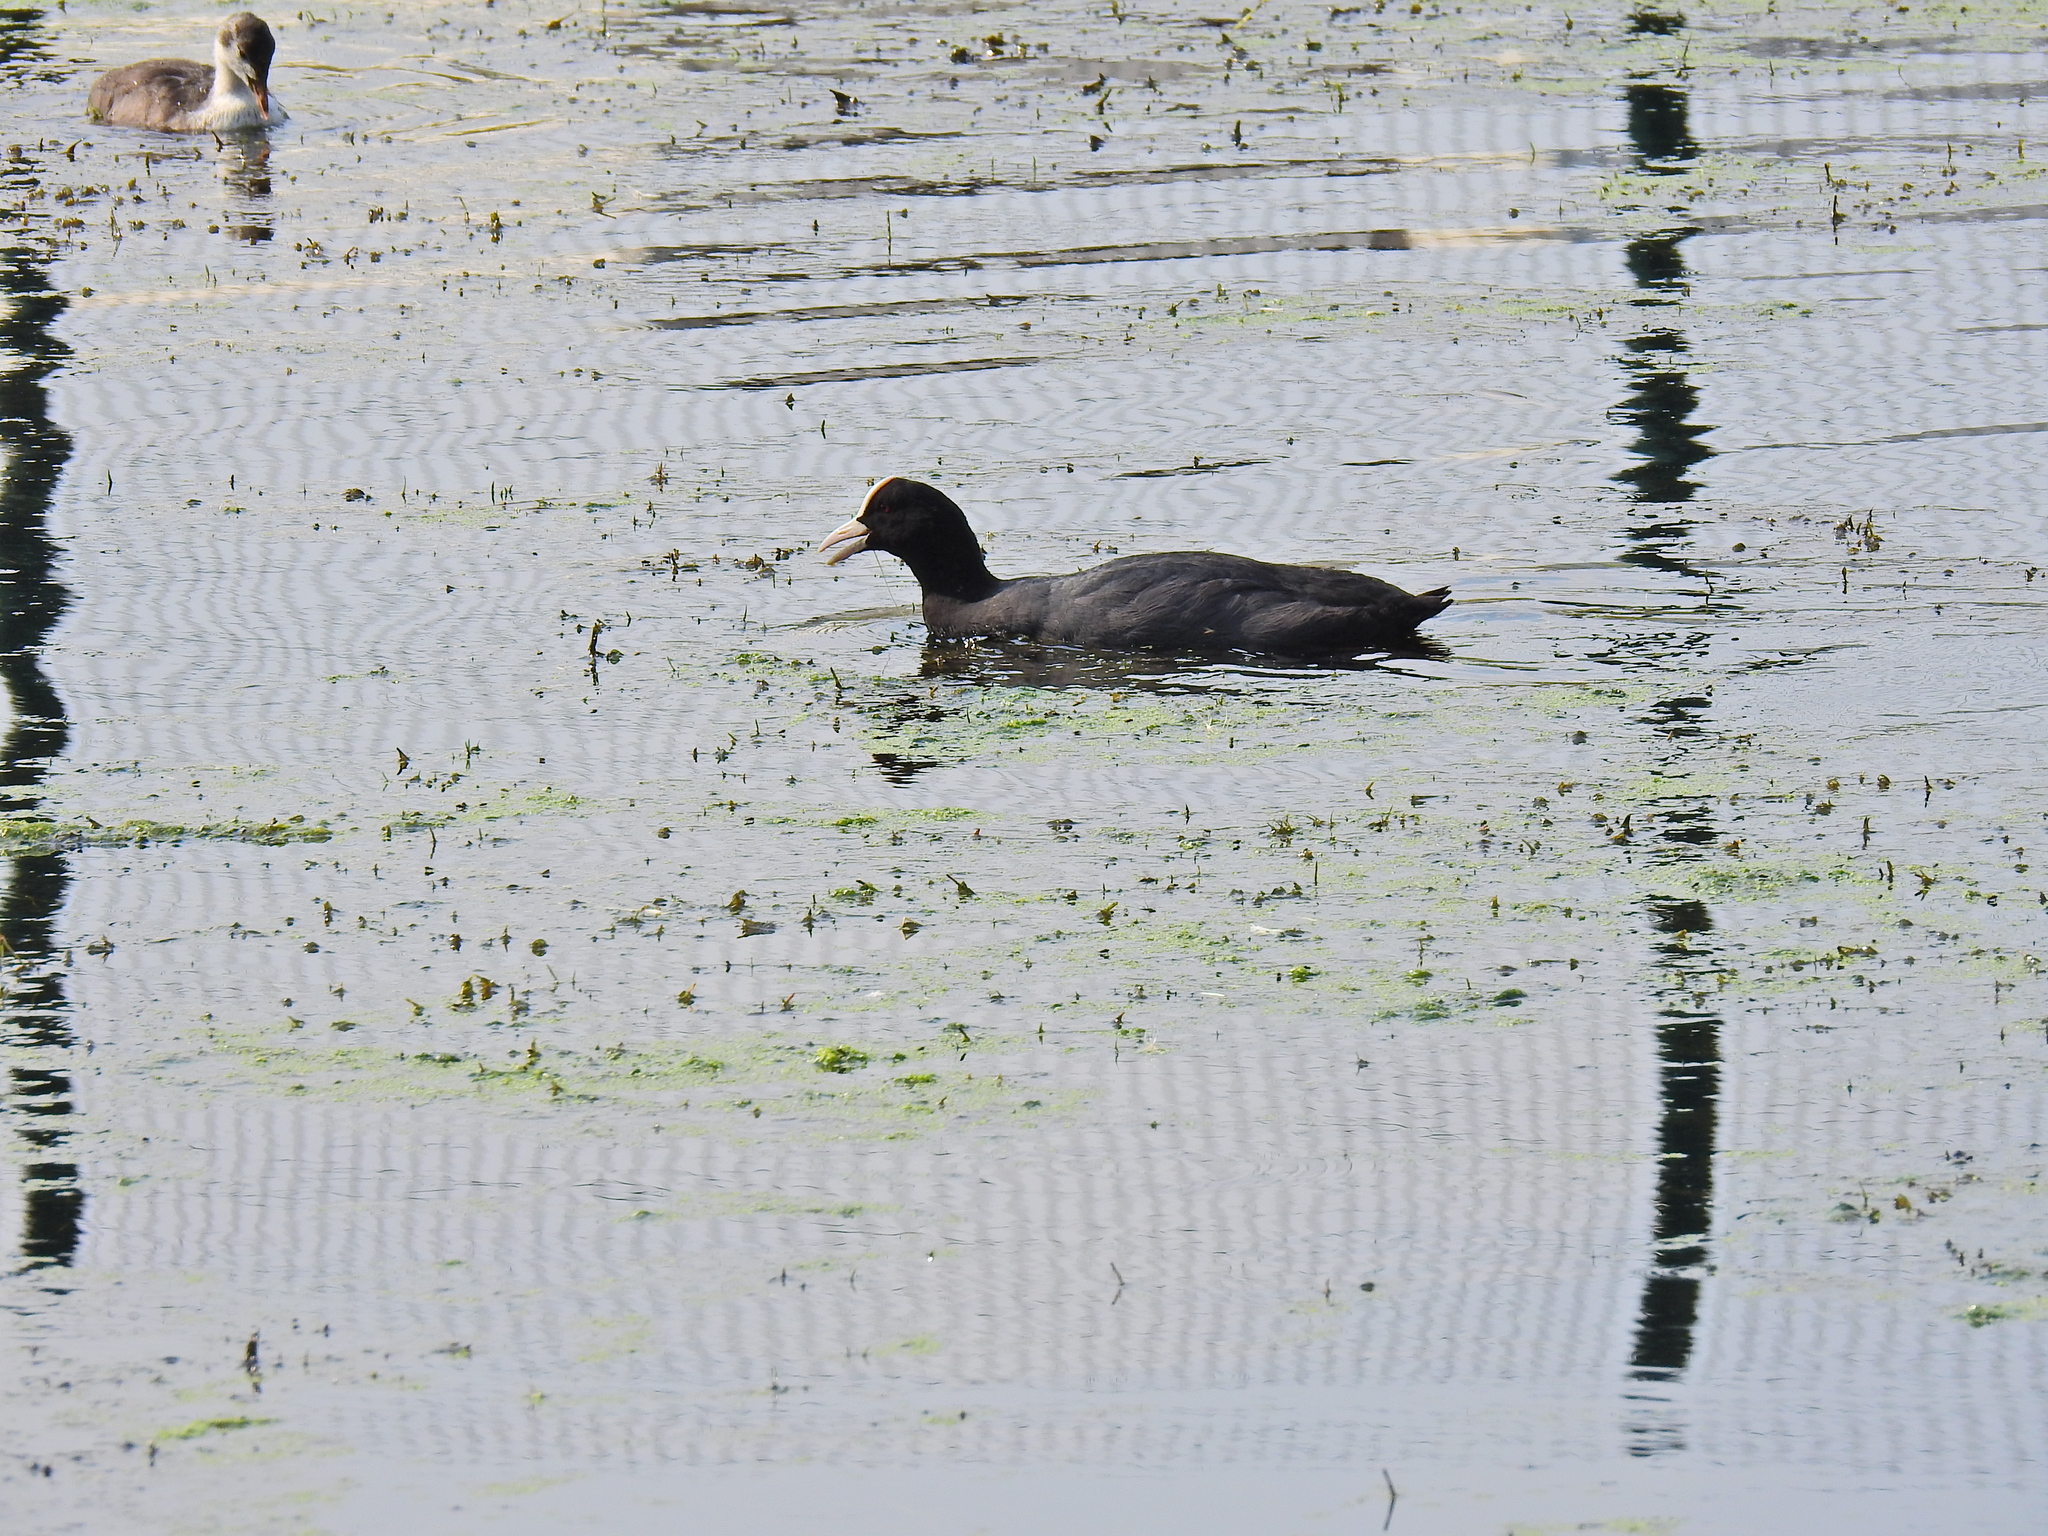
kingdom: Animalia
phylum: Chordata
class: Aves
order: Gruiformes
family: Rallidae
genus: Fulica
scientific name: Fulica atra
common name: Eurasian coot
